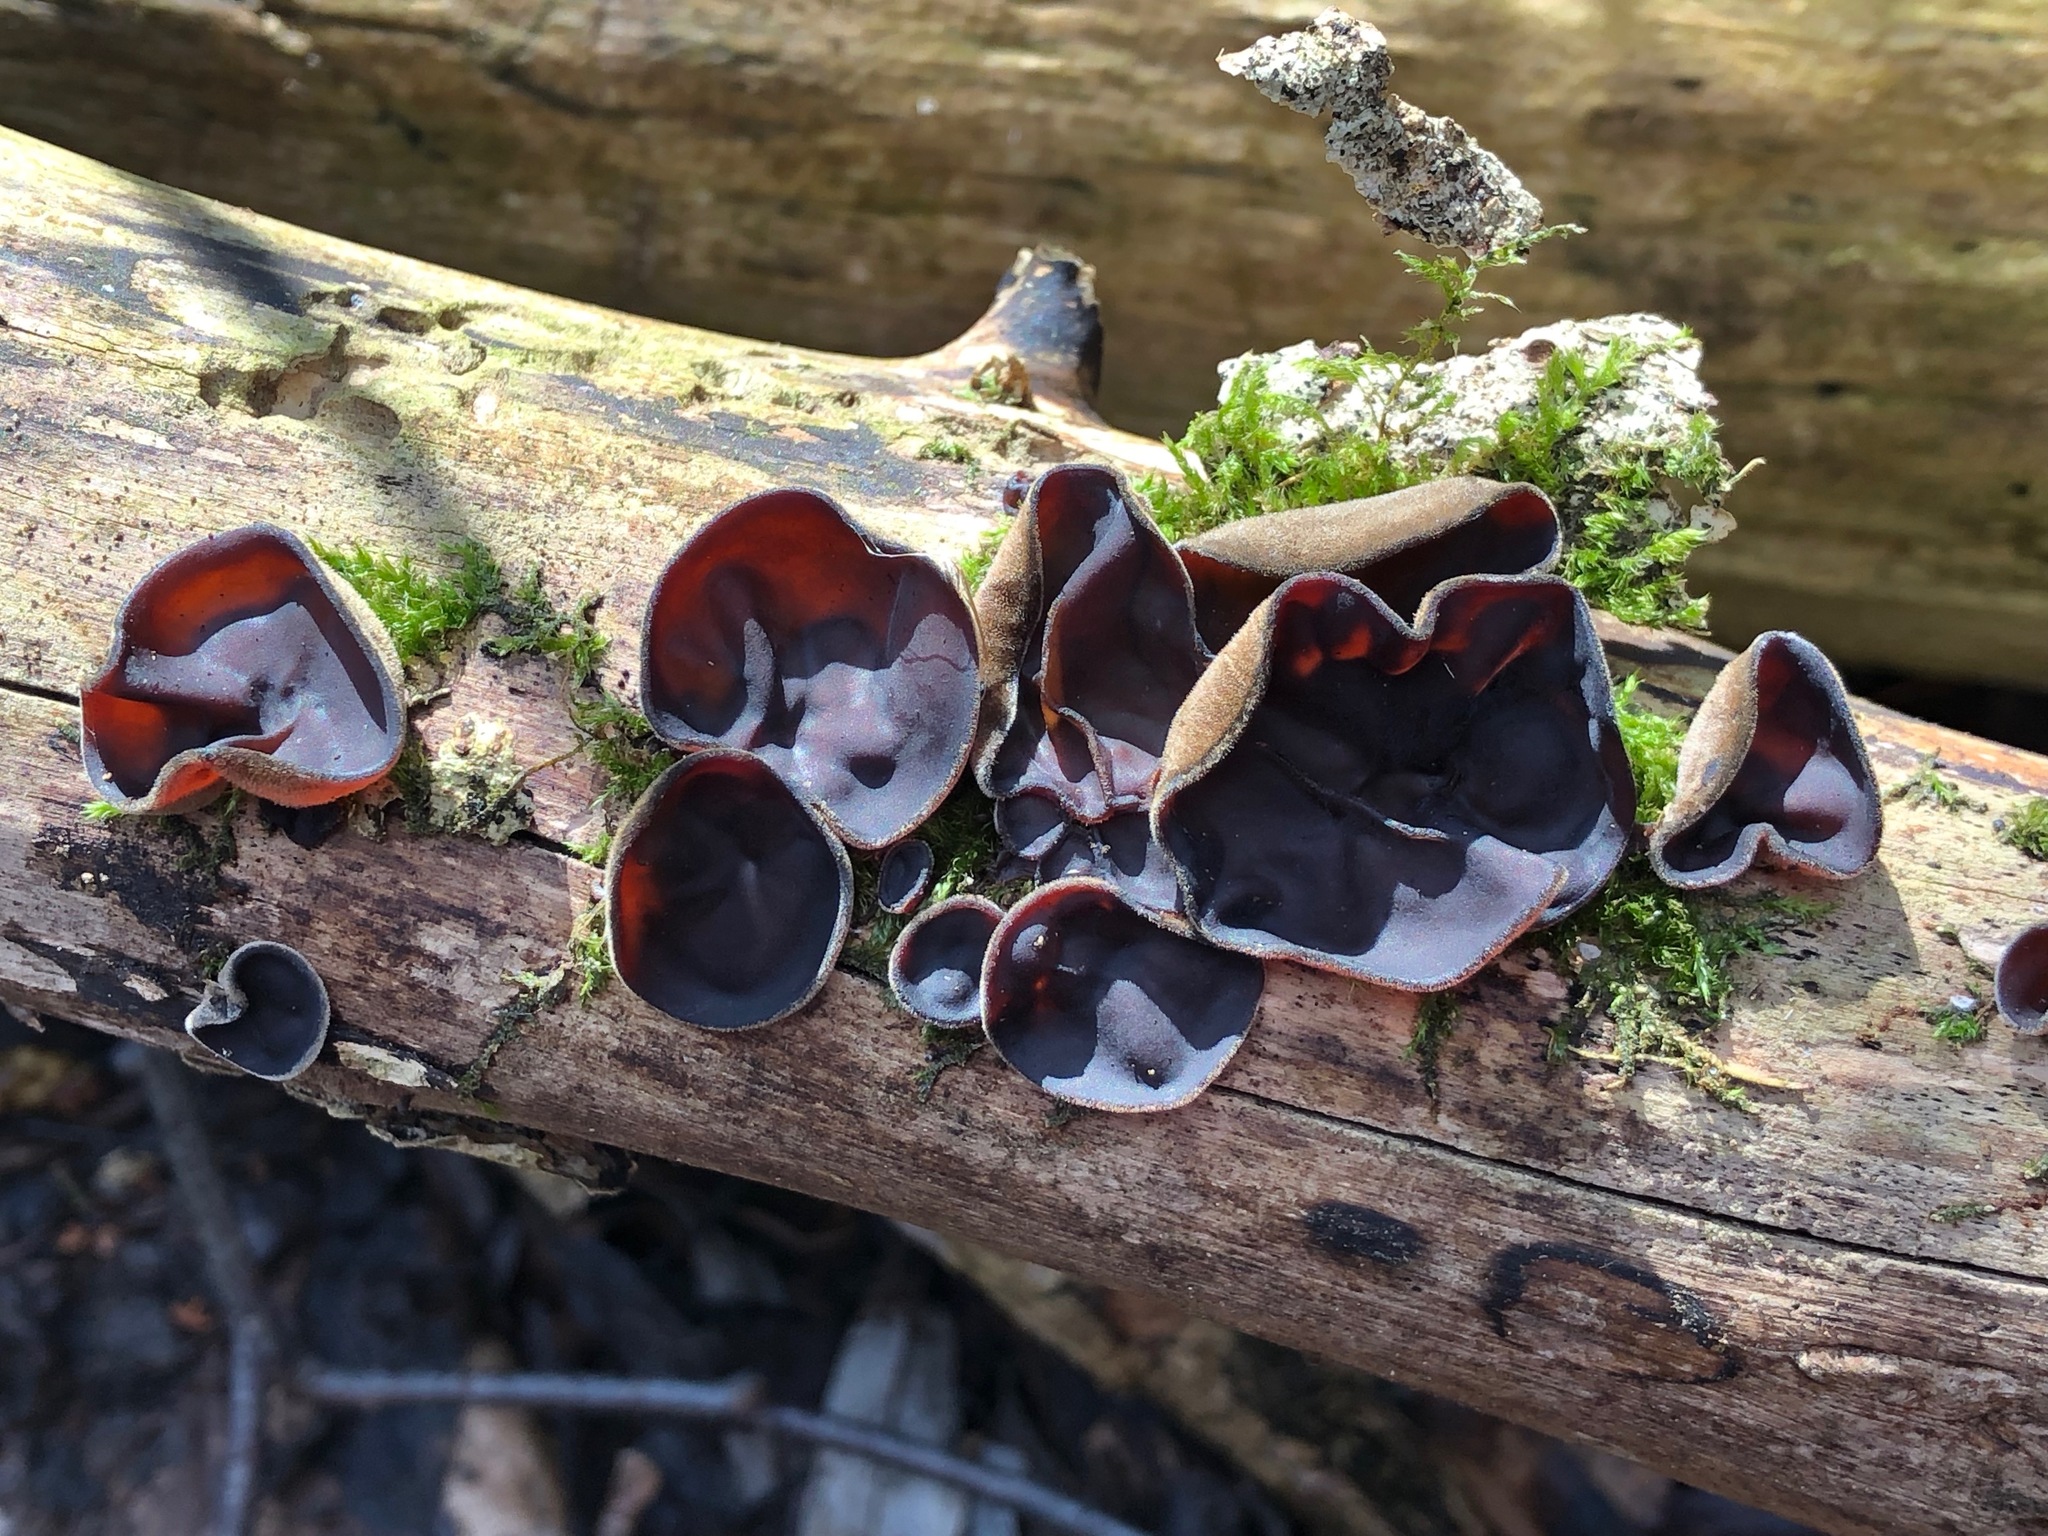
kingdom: Fungi
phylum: Basidiomycota
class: Agaricomycetes
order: Auriculariales
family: Auriculariaceae
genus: Auricularia
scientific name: Auricularia auricula-judae
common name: Jelly ear
